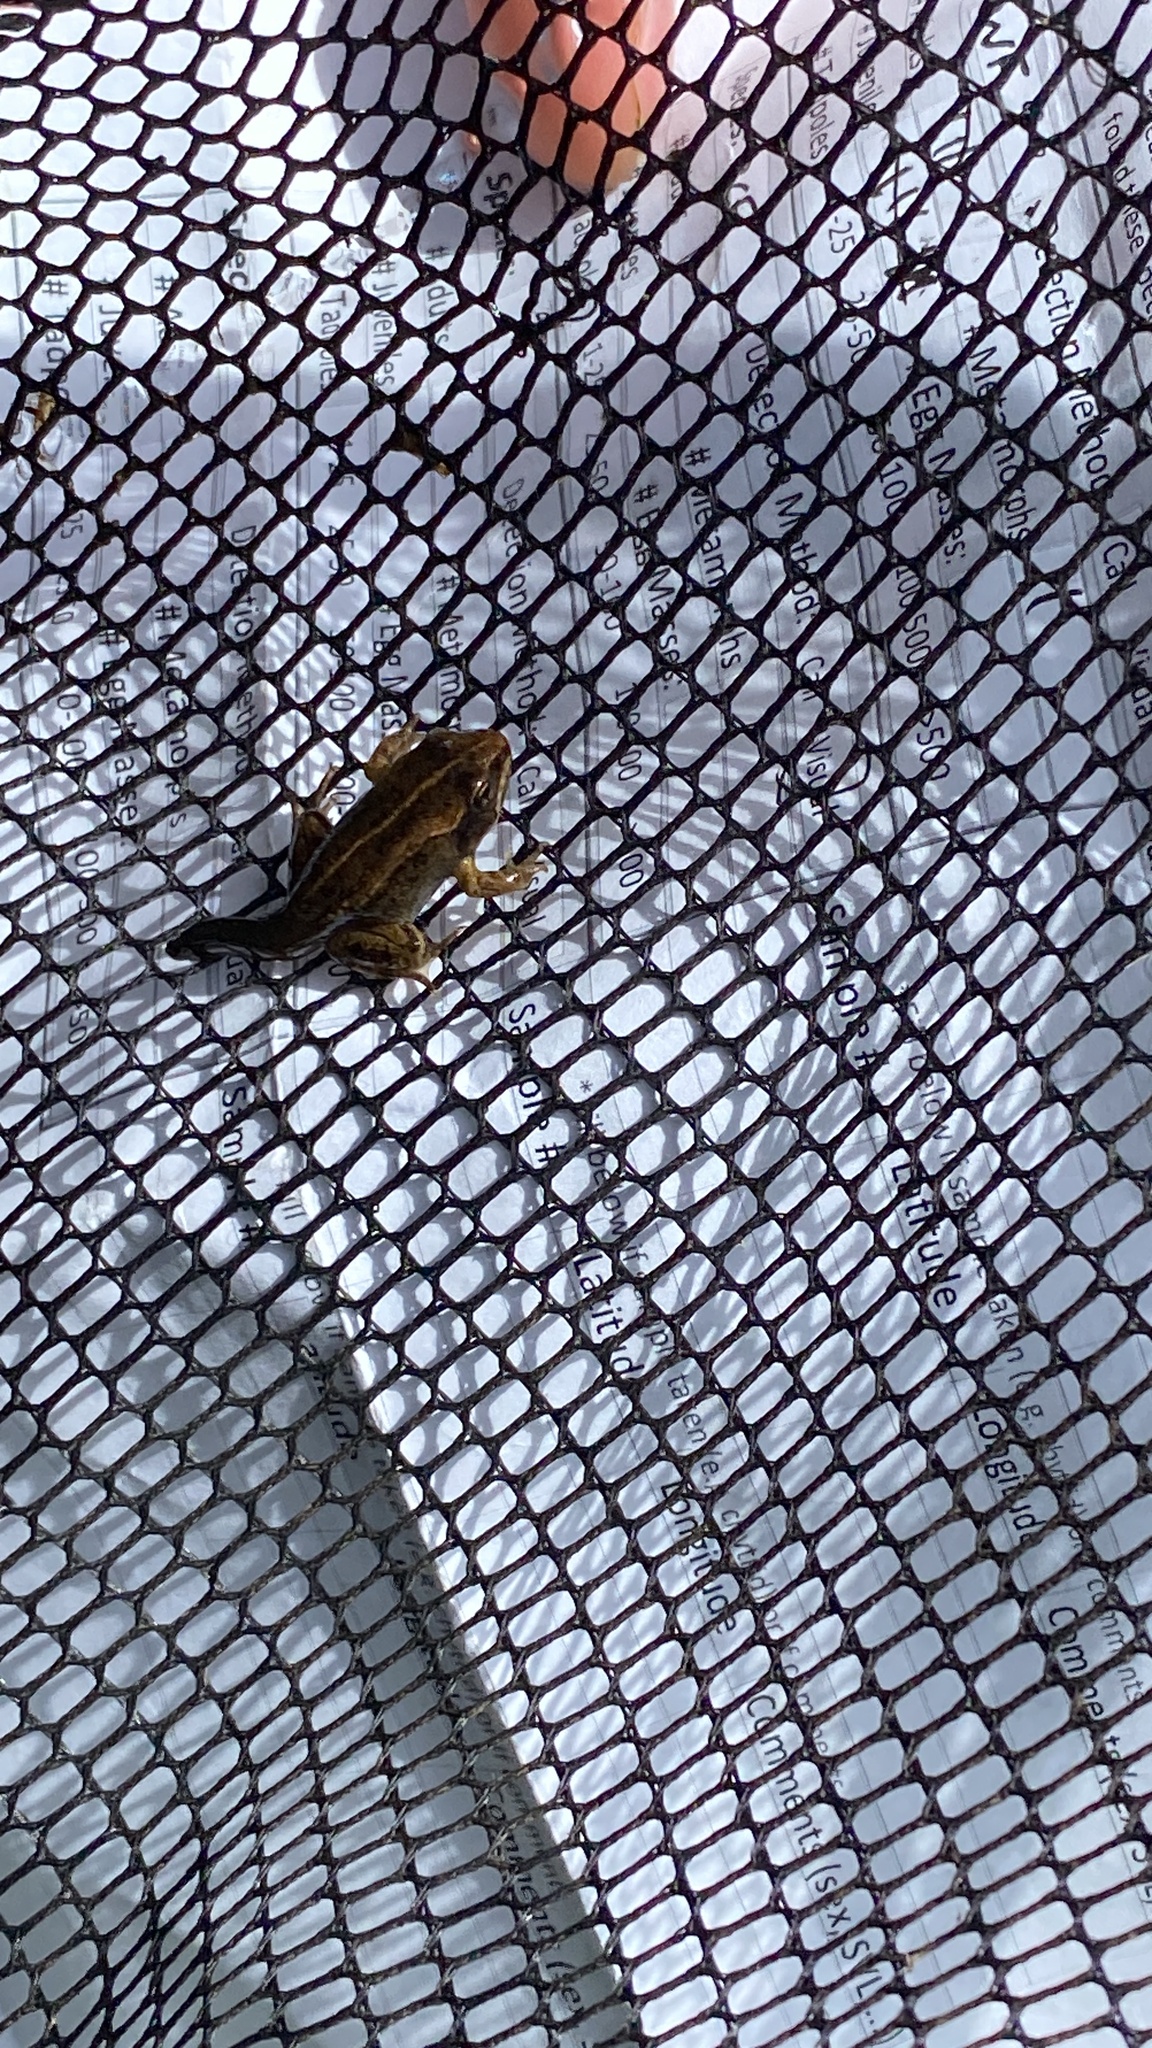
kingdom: Animalia
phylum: Chordata
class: Amphibia
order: Anura
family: Ranidae
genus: Lithobates
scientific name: Lithobates sylvaticus
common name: Wood frog
